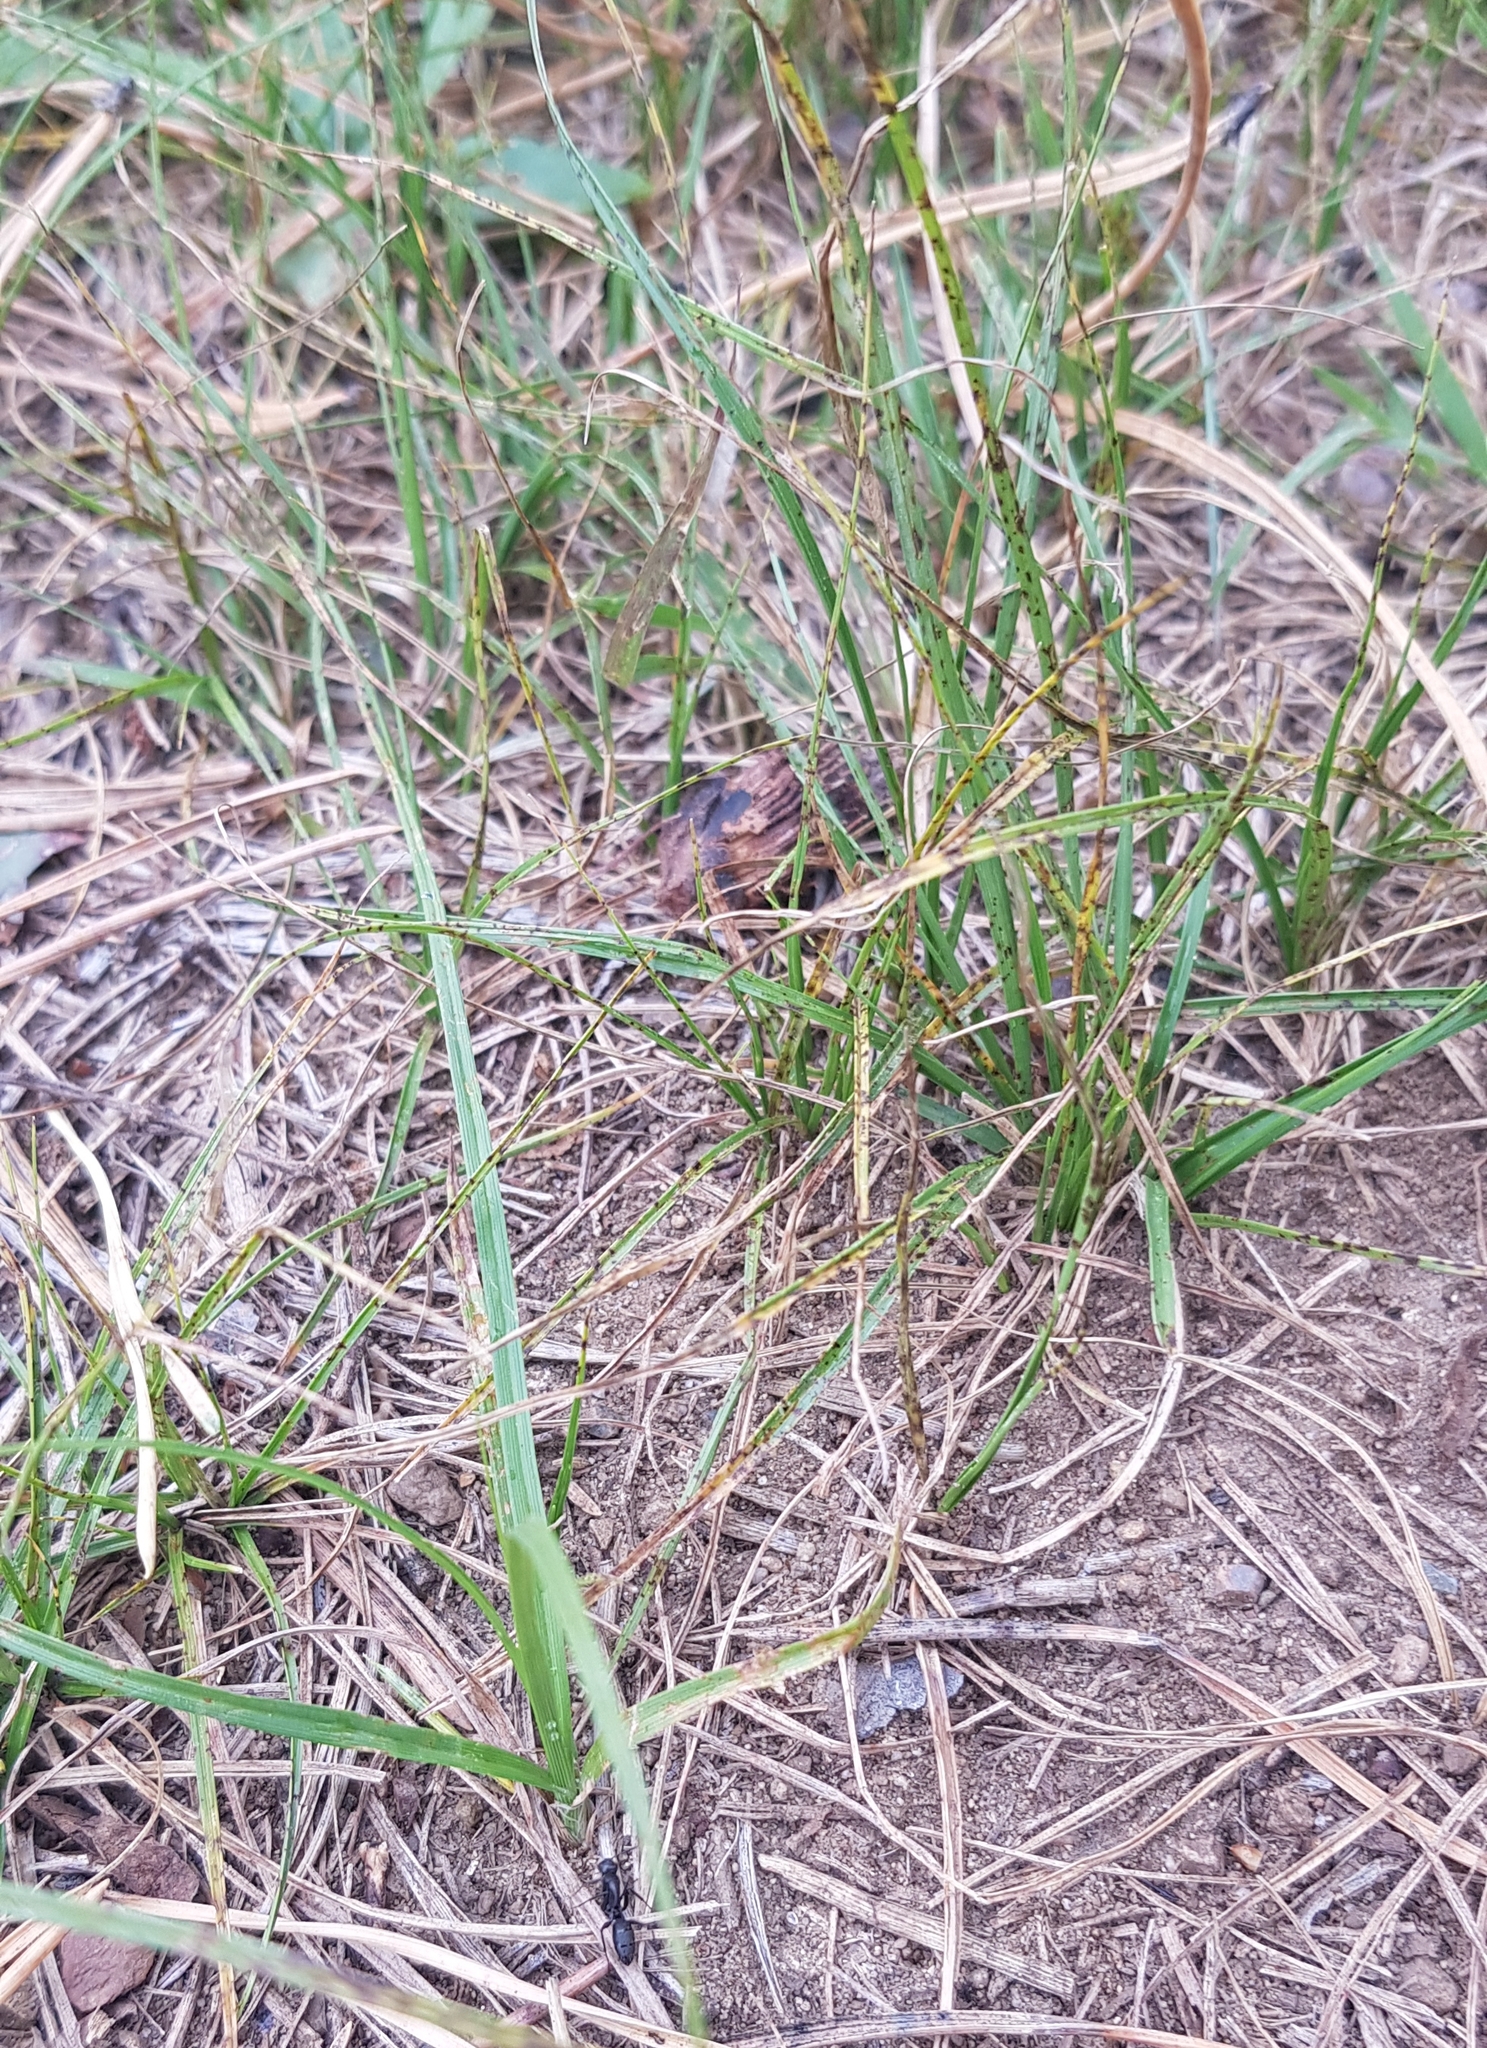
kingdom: Plantae
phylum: Tracheophyta
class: Liliopsida
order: Poales
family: Cyperaceae
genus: Carex
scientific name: Carex ericetorum
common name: Rare spring-sedge
